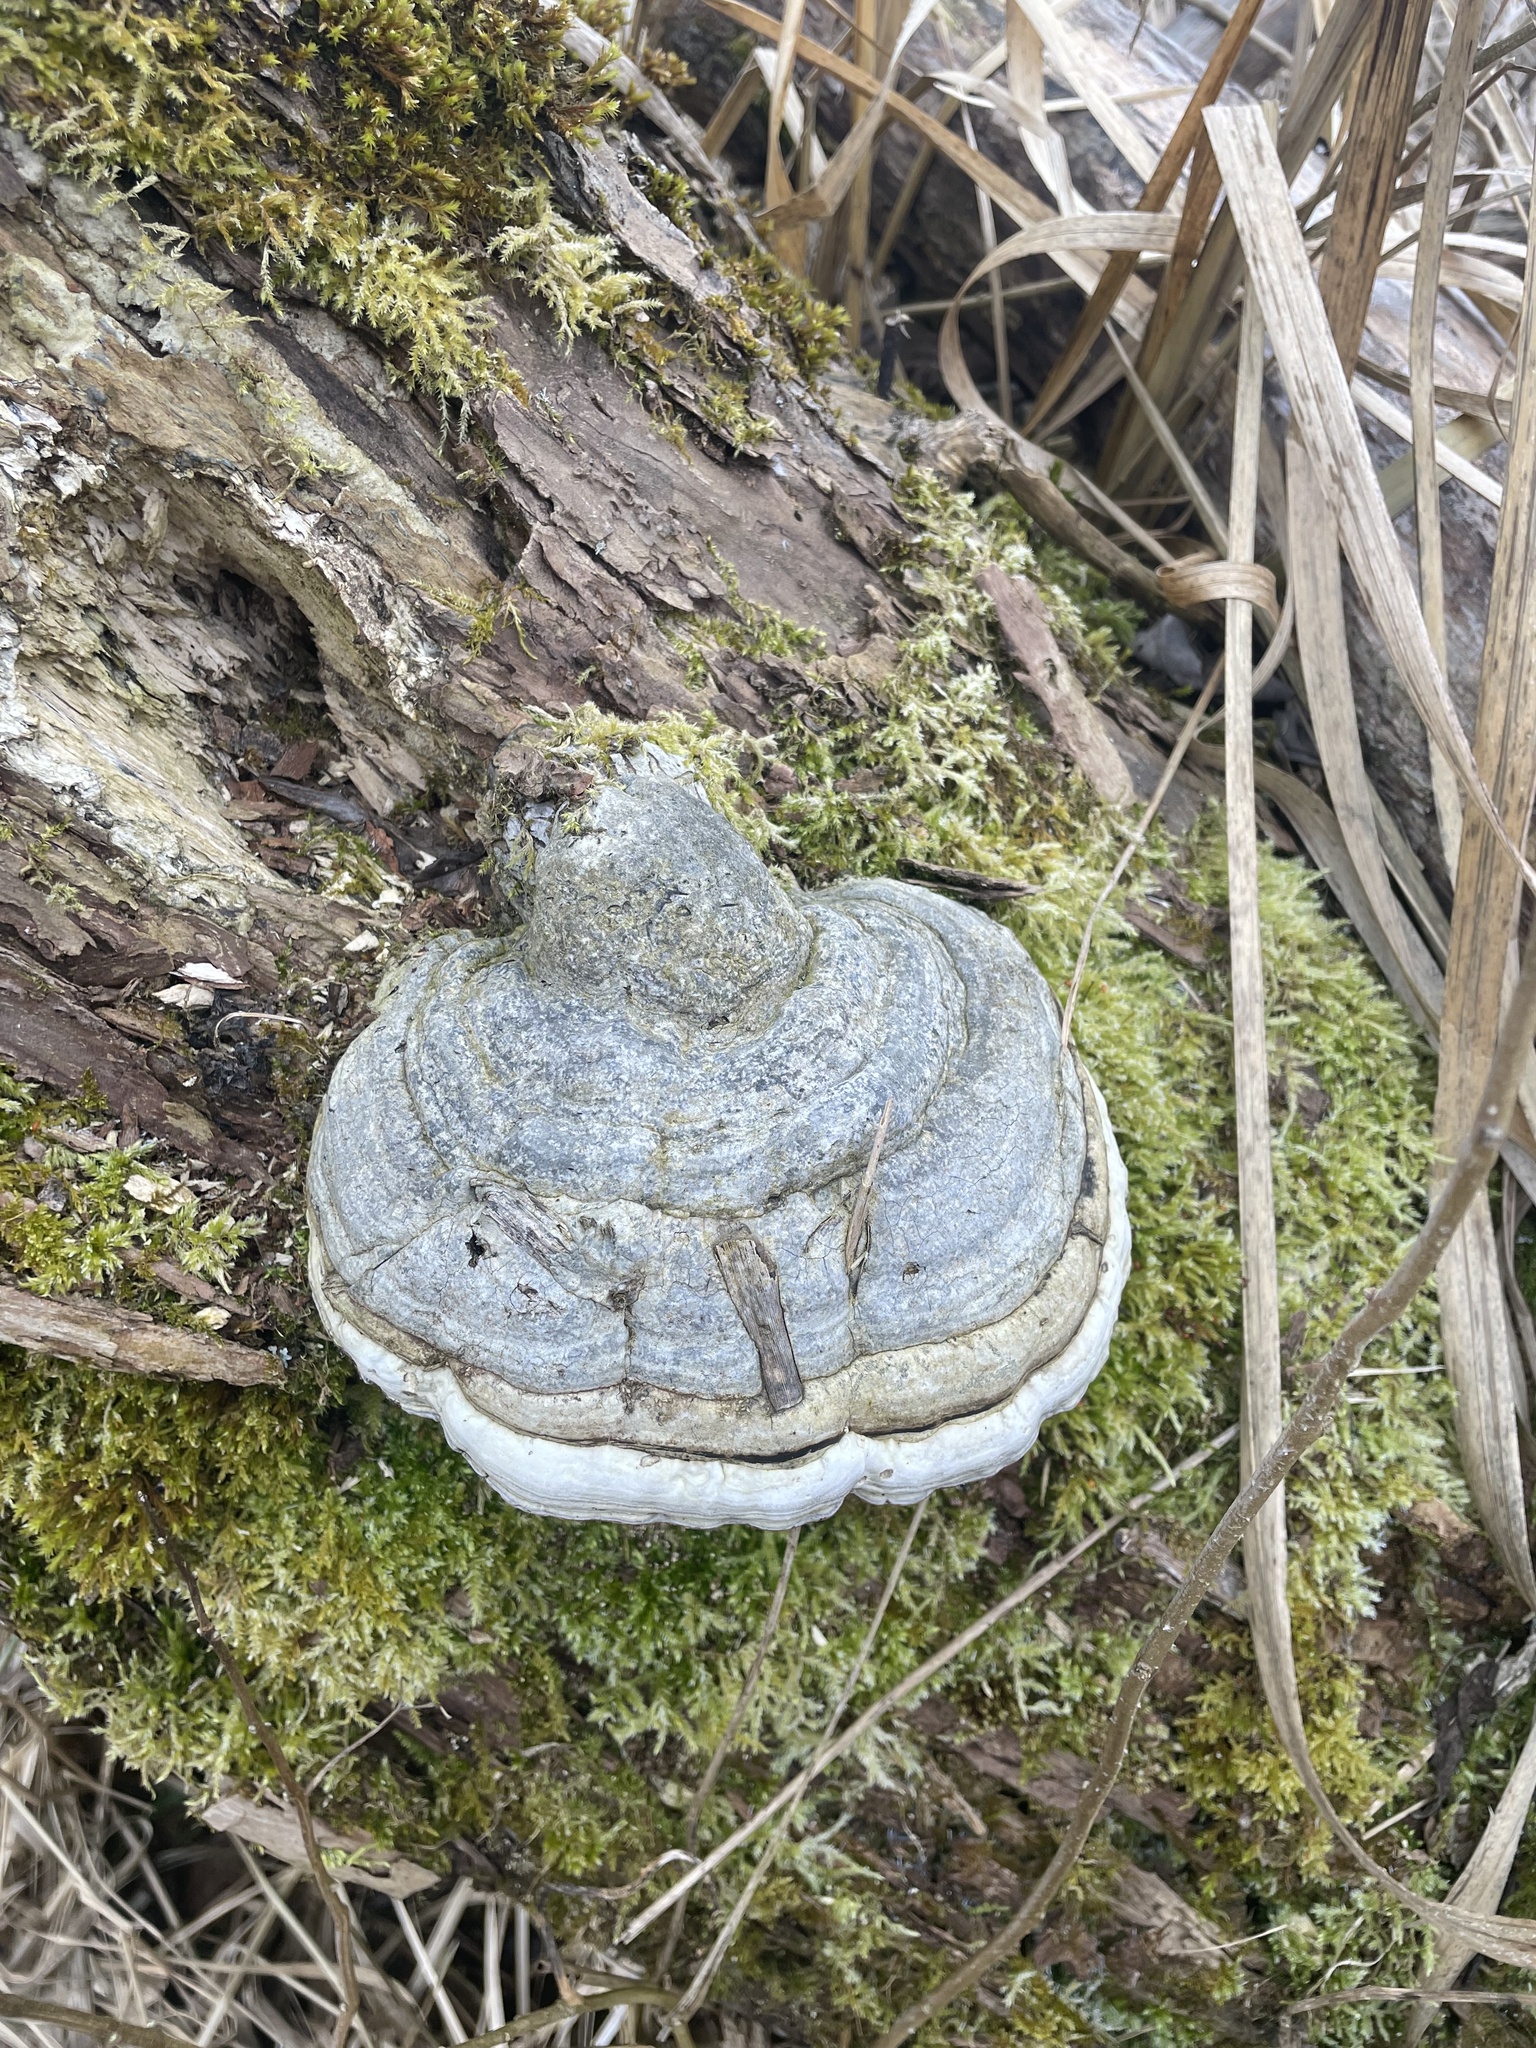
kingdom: Fungi
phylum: Basidiomycota
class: Agaricomycetes
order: Polyporales
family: Polyporaceae
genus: Fomes
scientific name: Fomes fomentarius
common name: Hoof fungus
